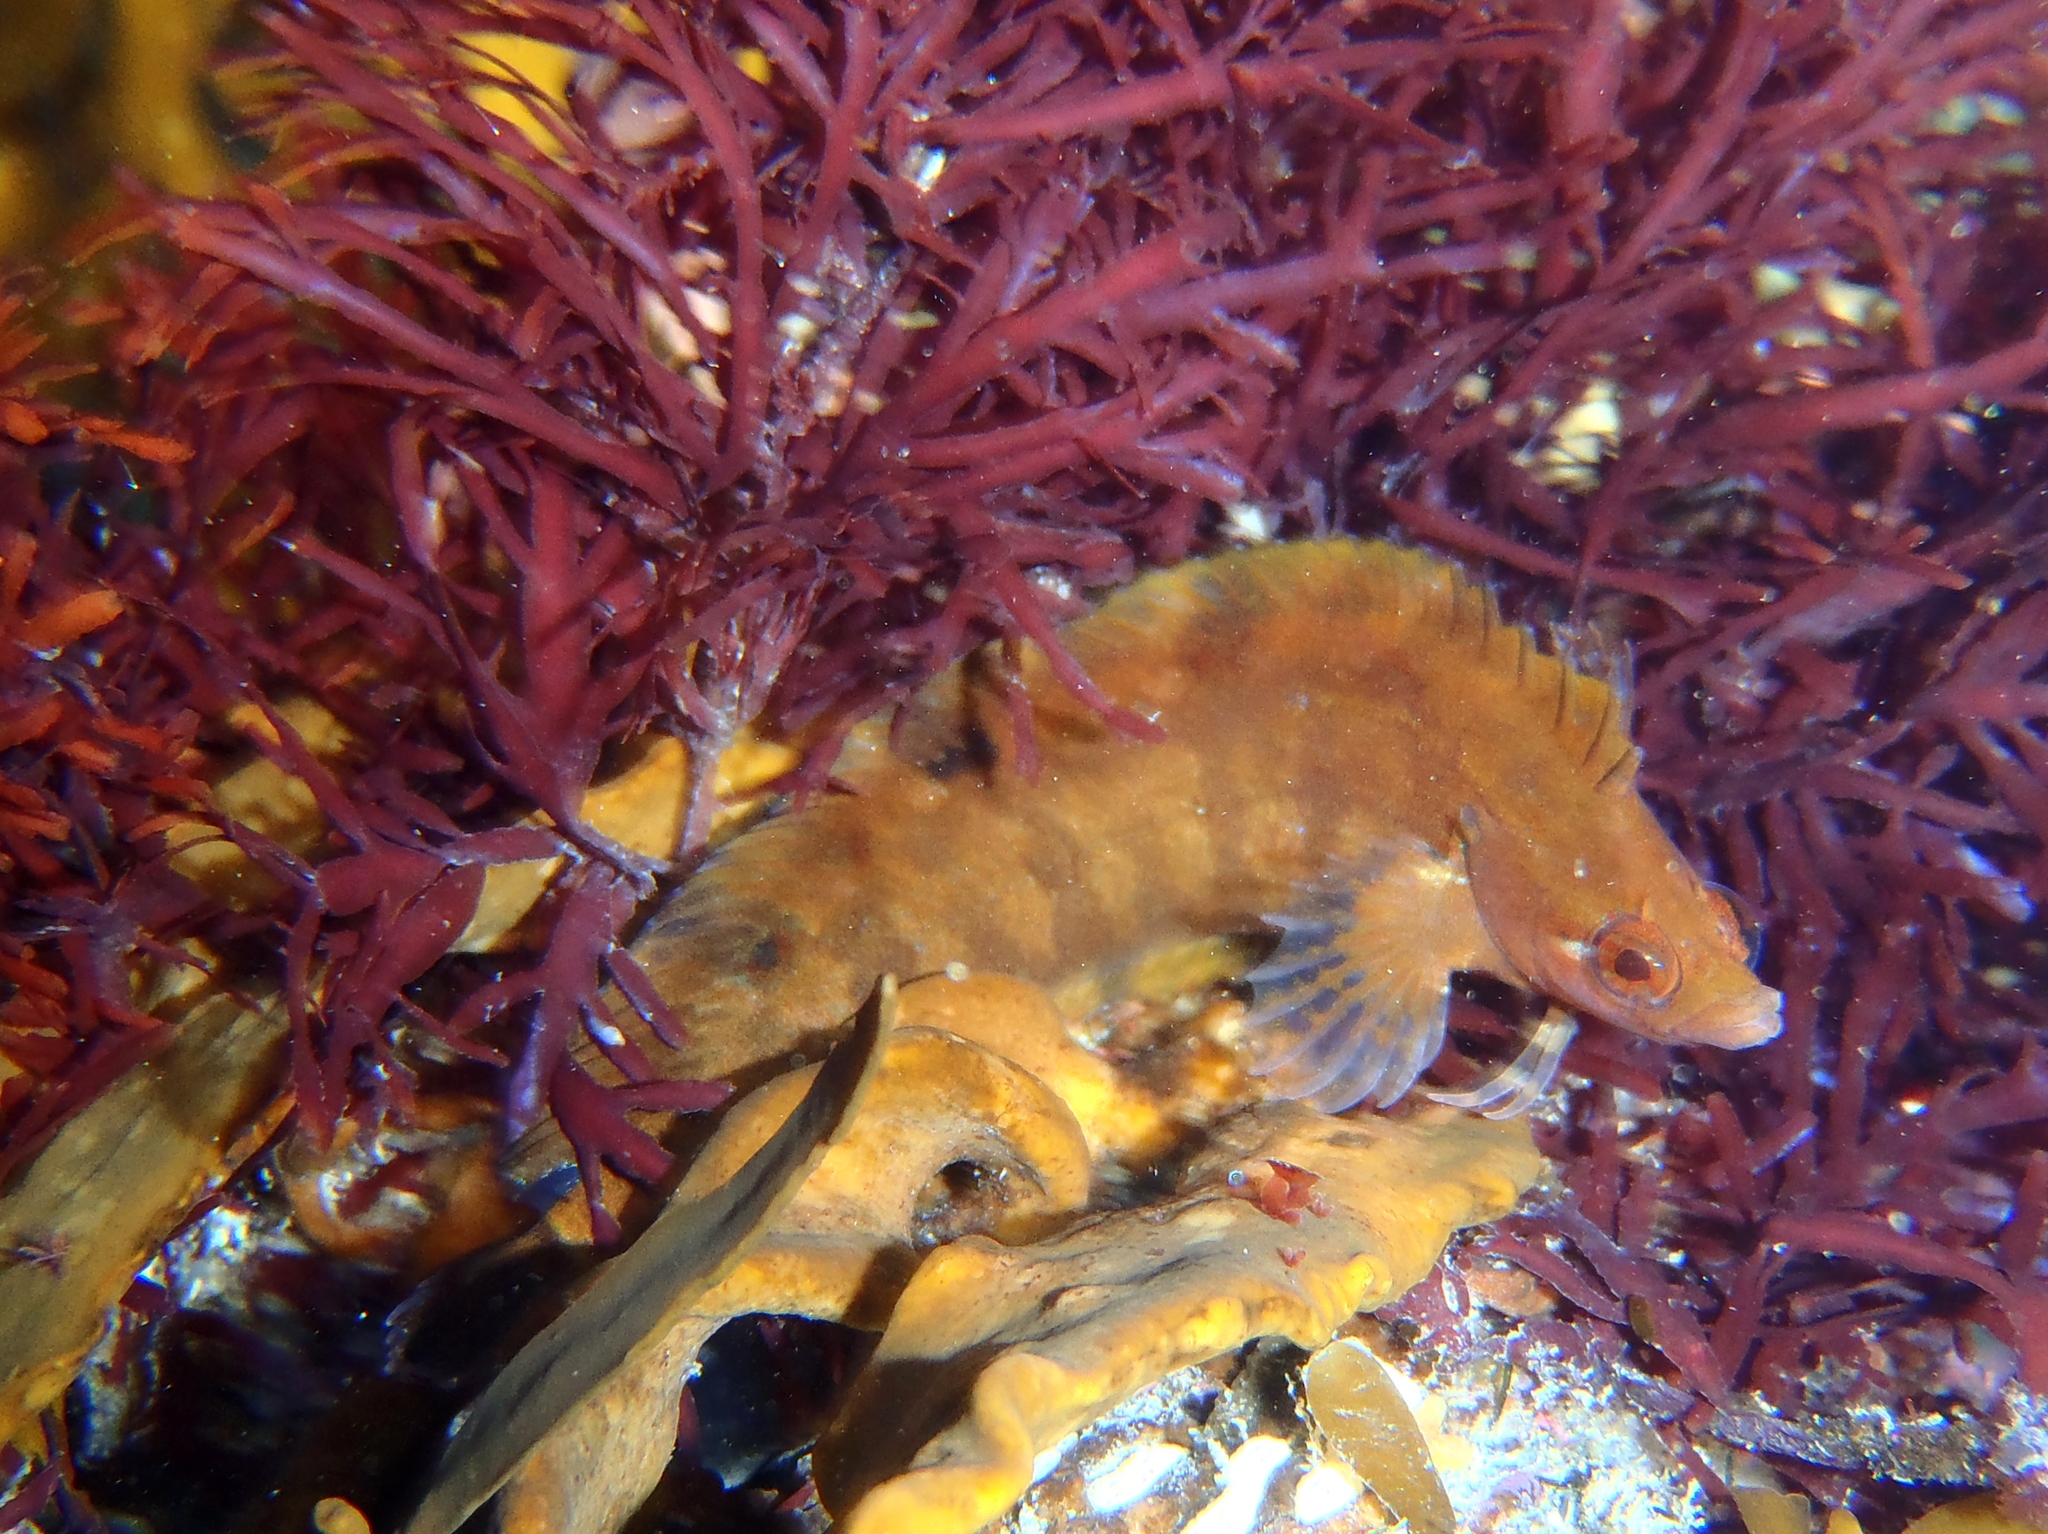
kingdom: Animalia
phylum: Chordata
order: Perciformes
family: Clinidae
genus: Ericentrus
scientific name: Ericentrus rubrus
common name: Orange clinid
